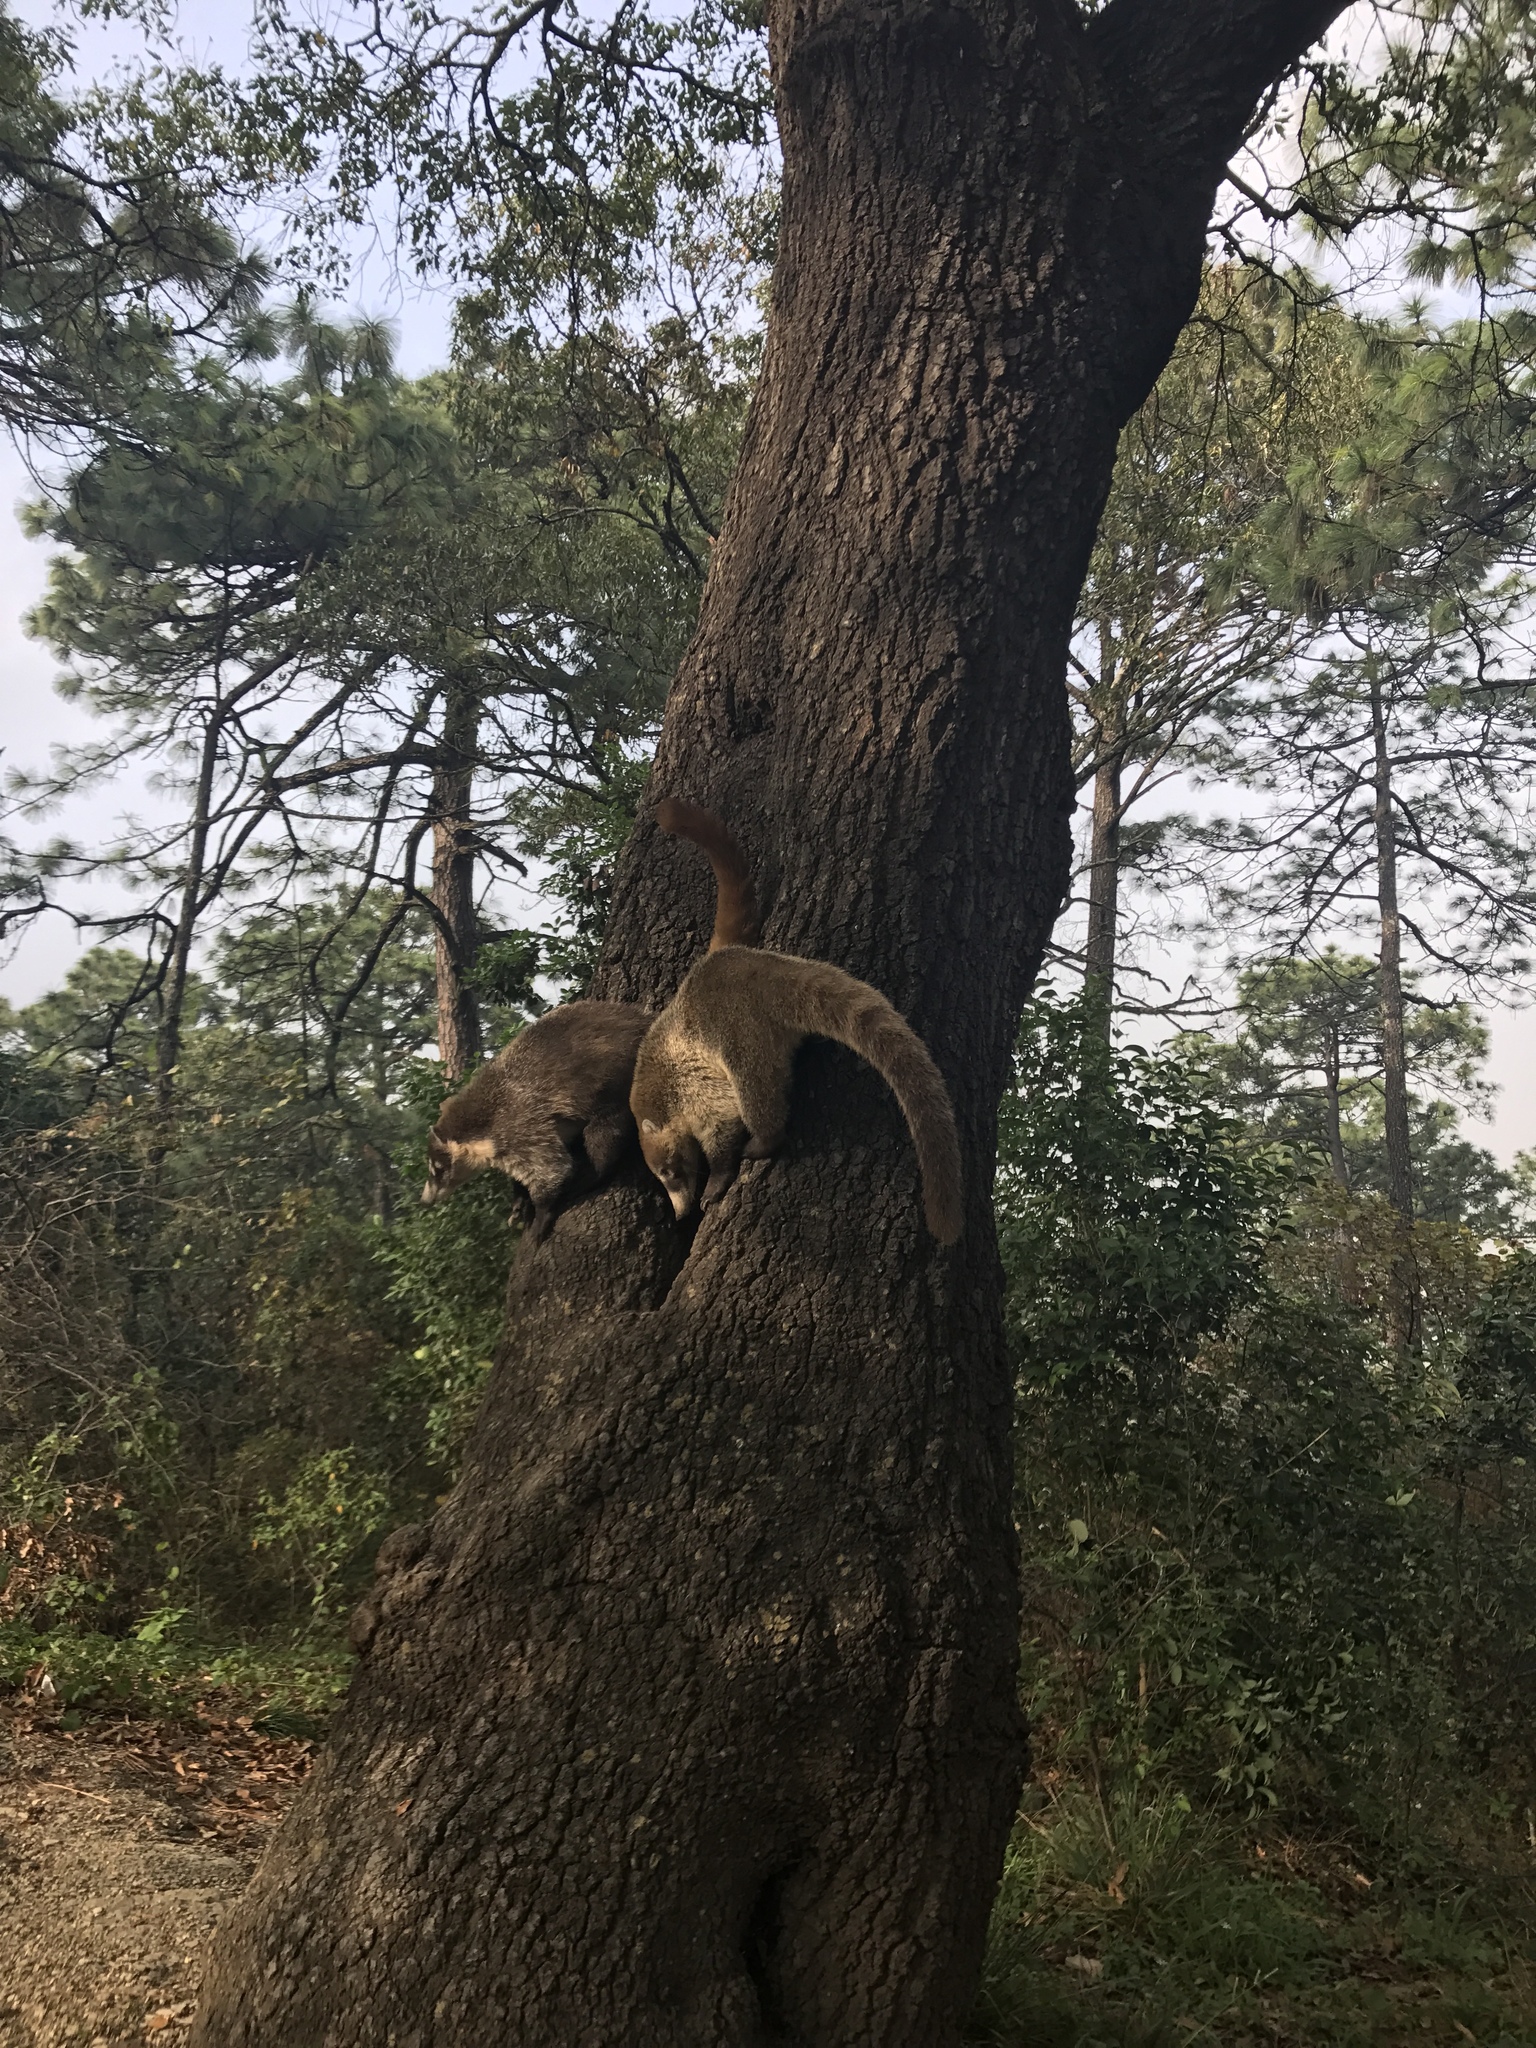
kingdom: Animalia
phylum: Chordata
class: Mammalia
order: Carnivora
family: Procyonidae
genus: Nasua
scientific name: Nasua narica
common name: White-nosed coati
